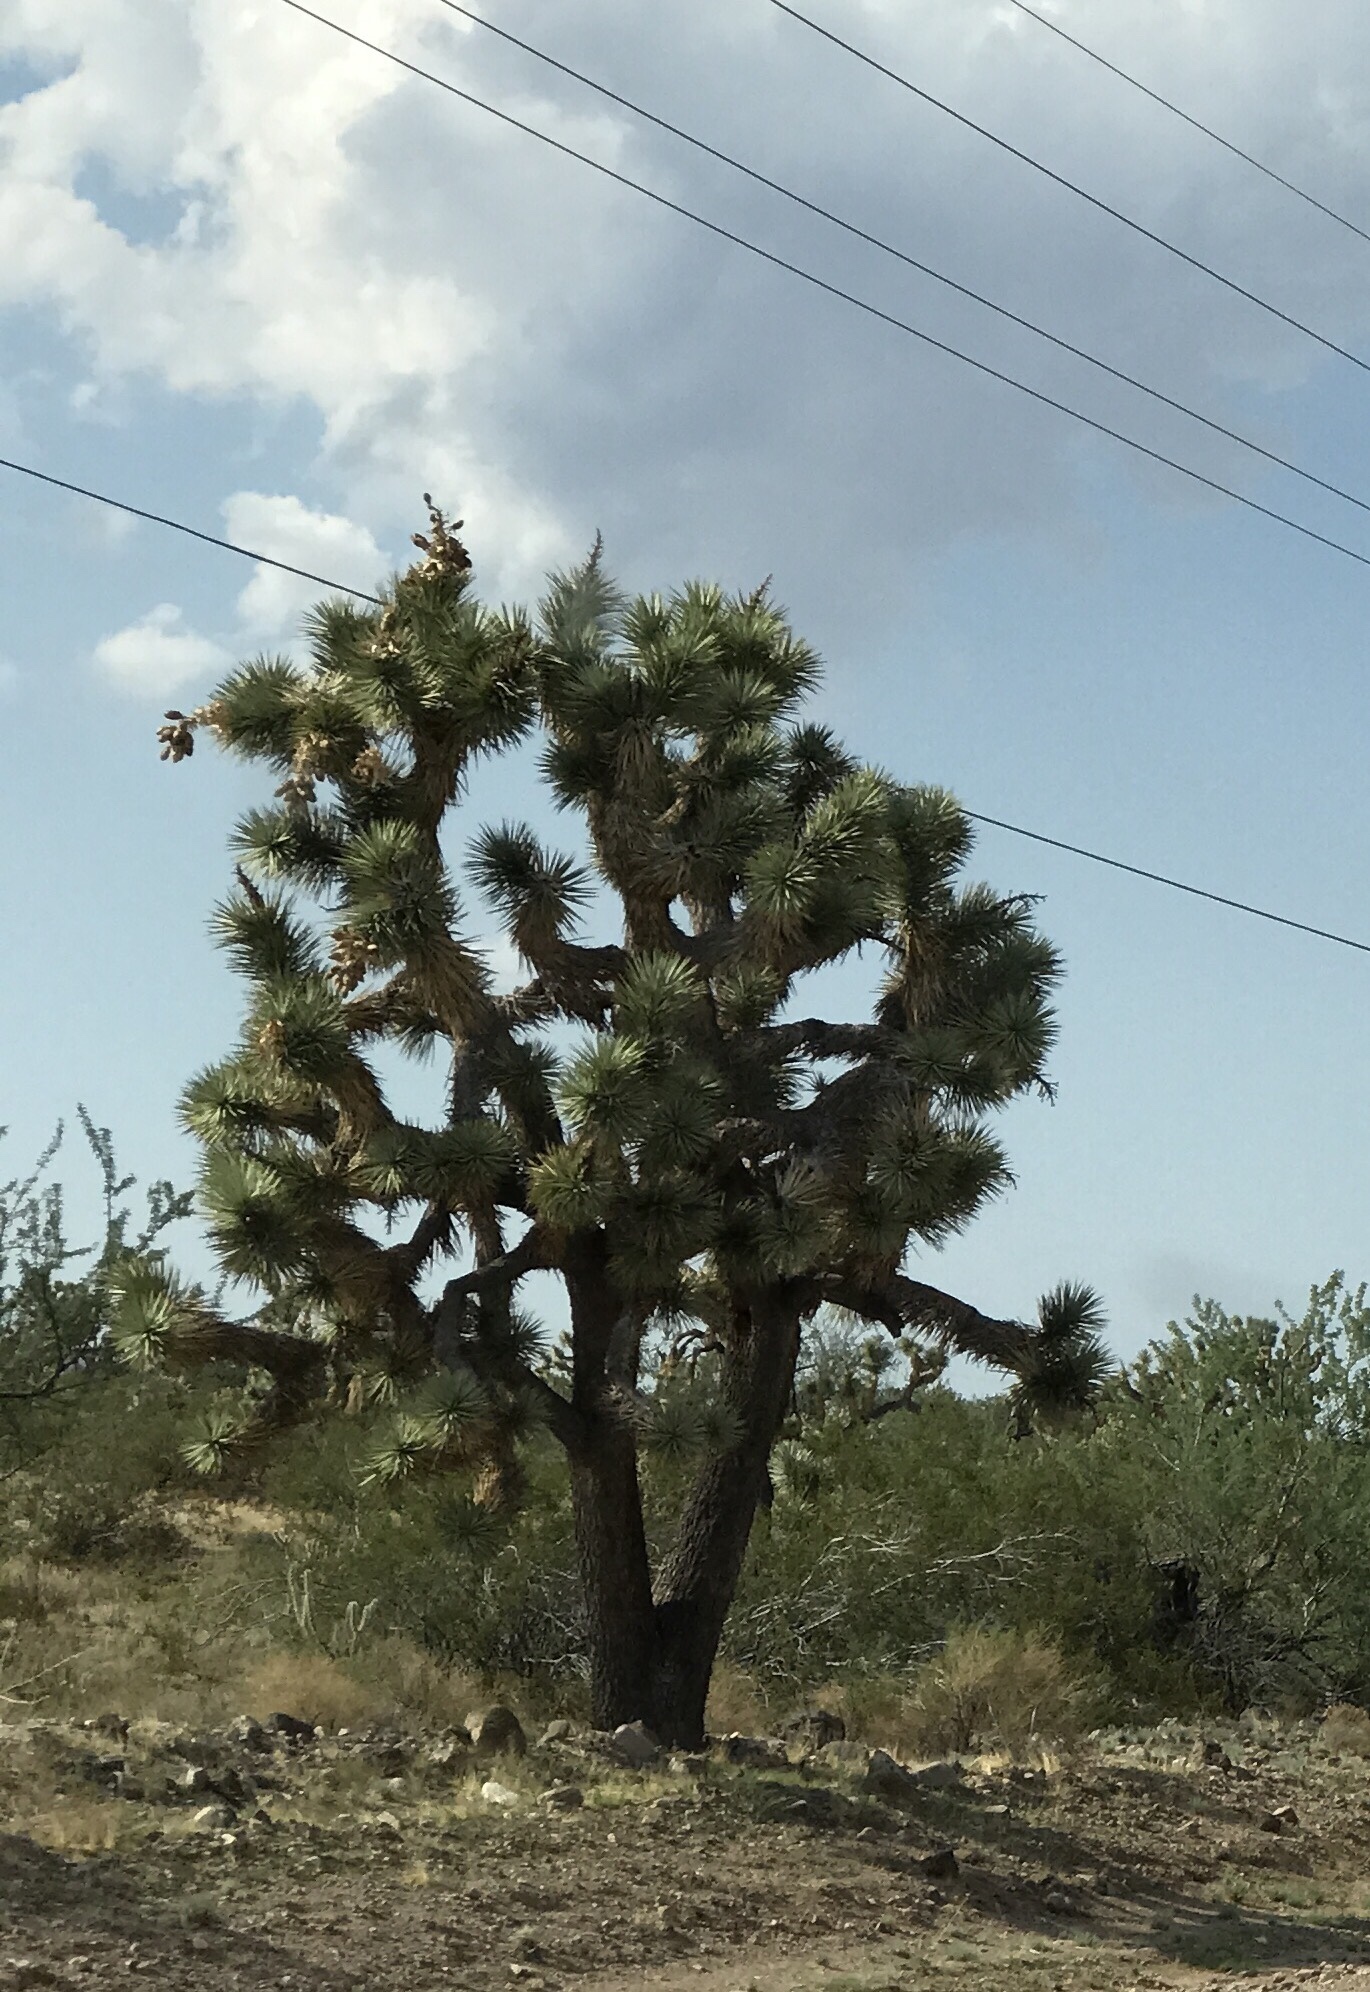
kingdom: Plantae
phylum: Tracheophyta
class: Liliopsida
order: Asparagales
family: Asparagaceae
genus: Yucca
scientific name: Yucca brevifolia
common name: Joshua tree
